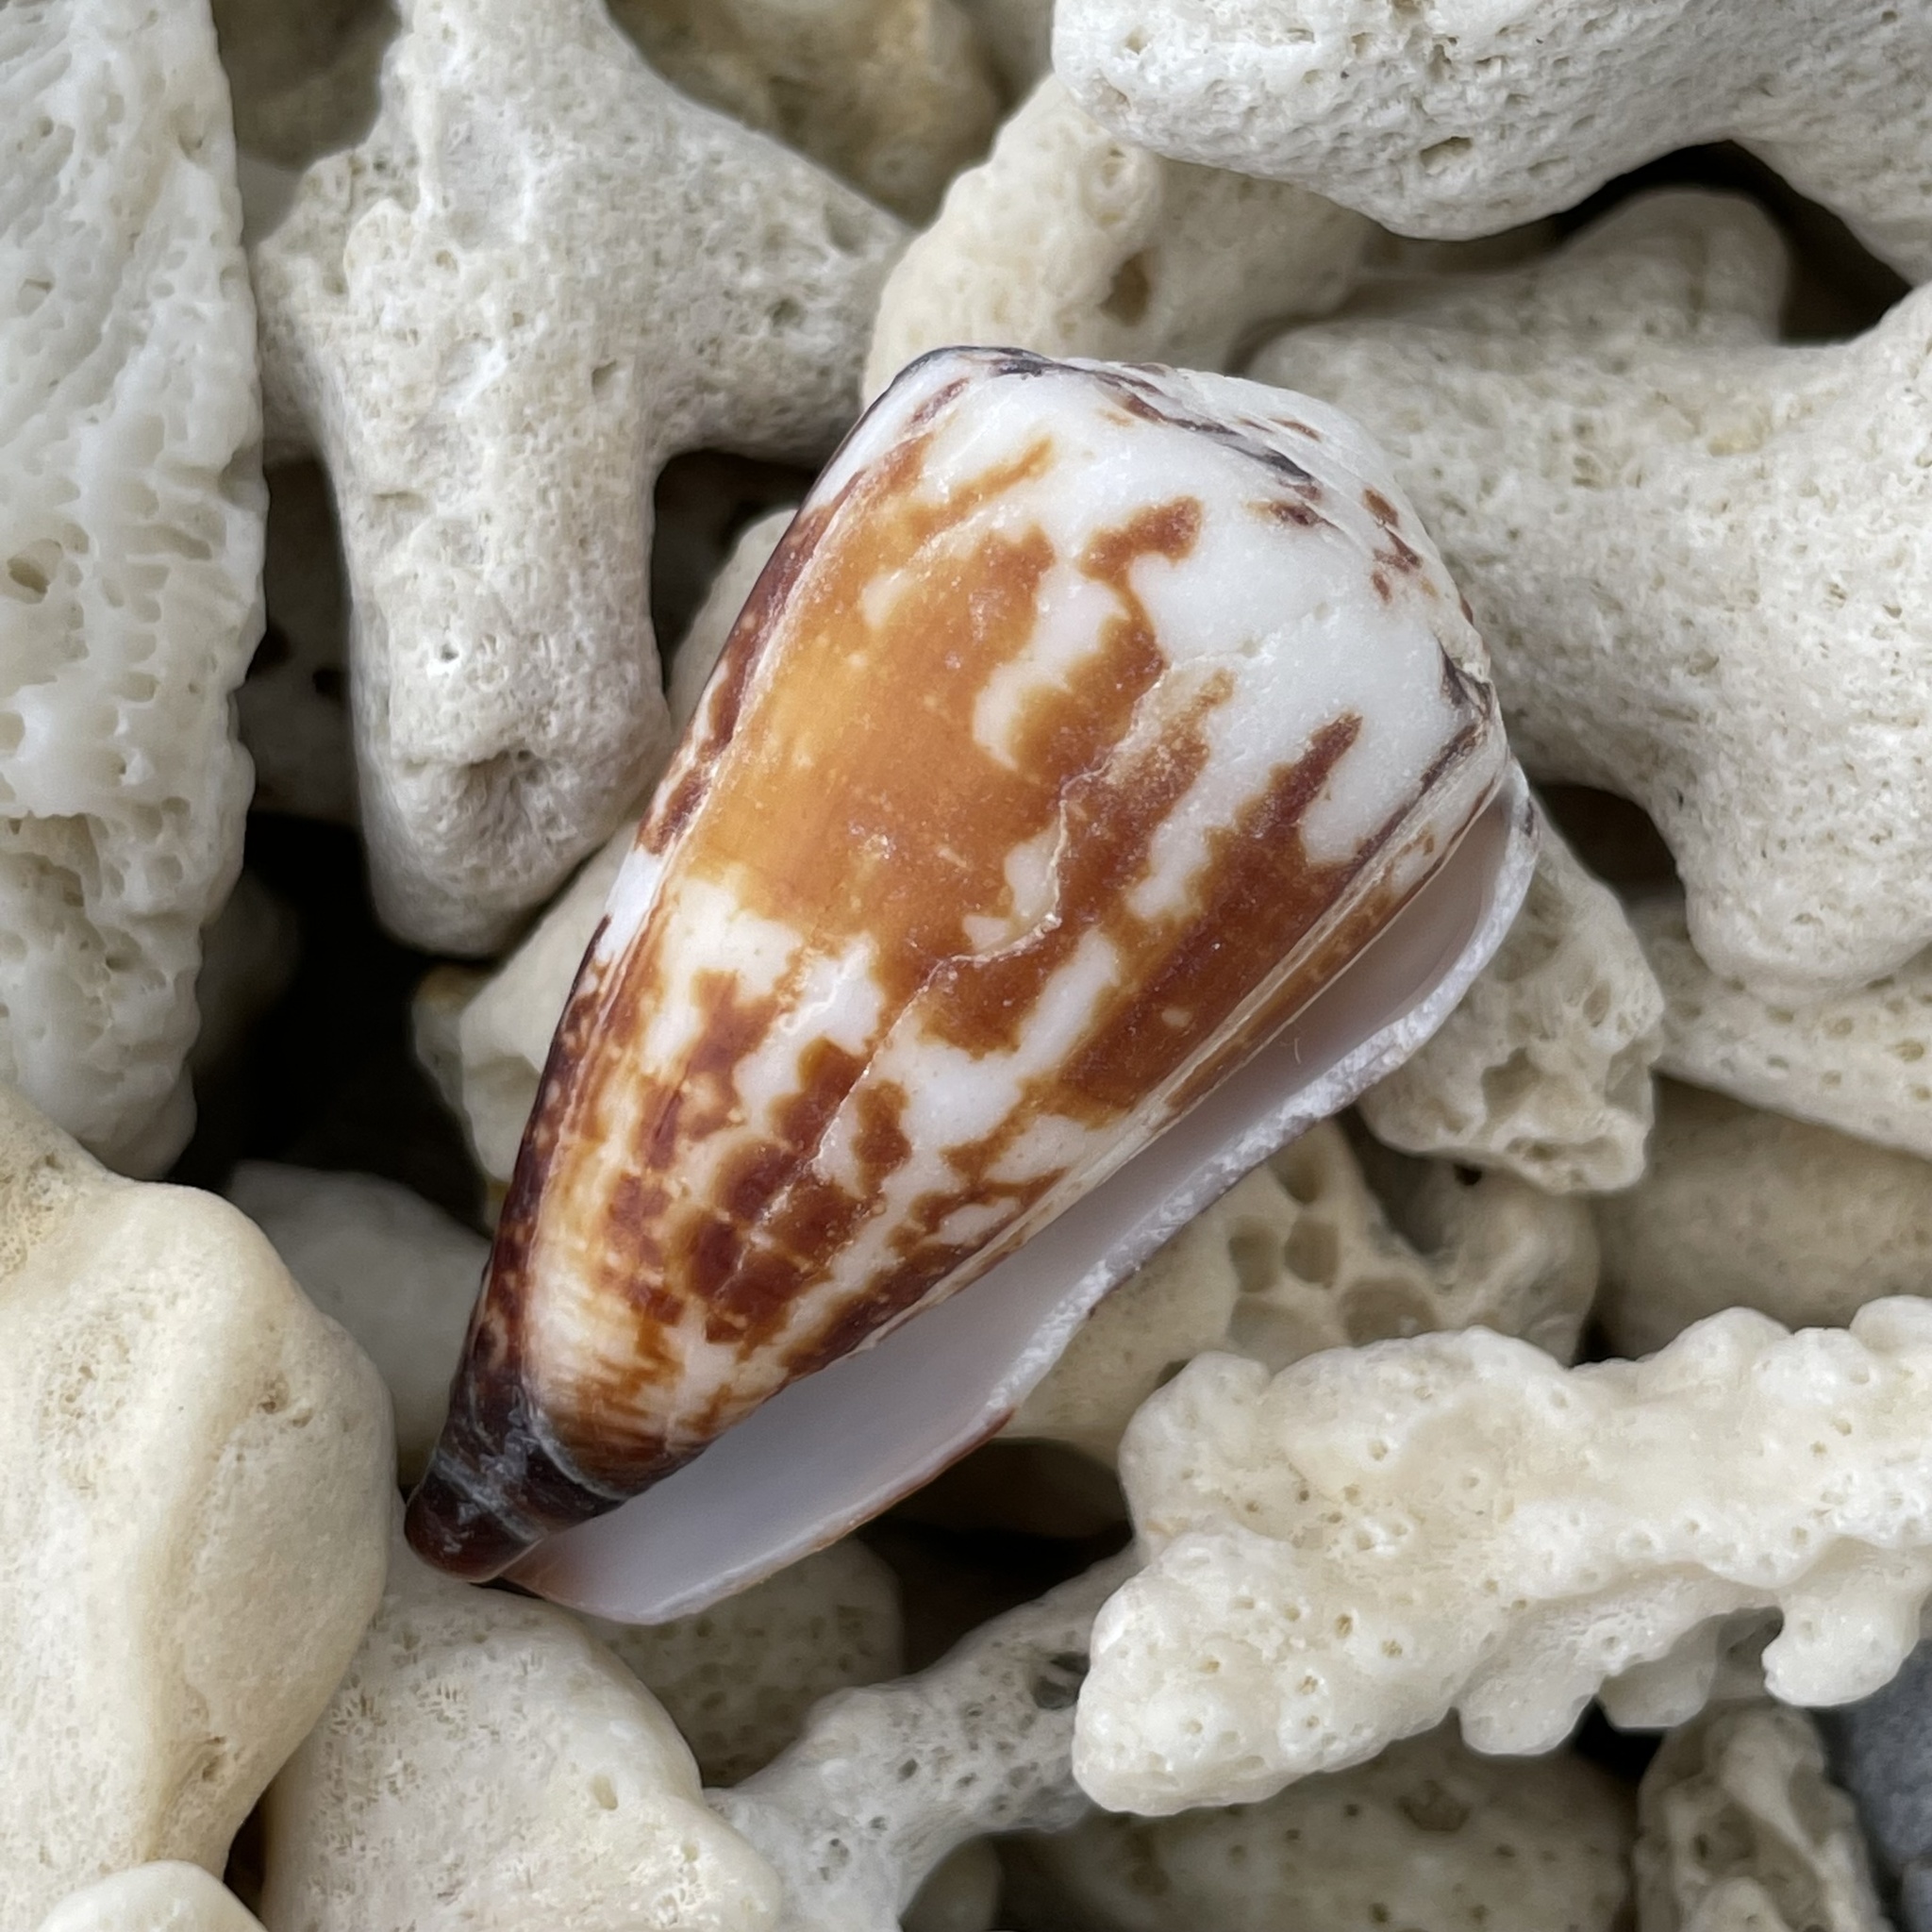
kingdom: Animalia
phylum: Mollusca
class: Gastropoda
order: Neogastropoda
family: Conidae
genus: Conus
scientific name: Conus planorbis
